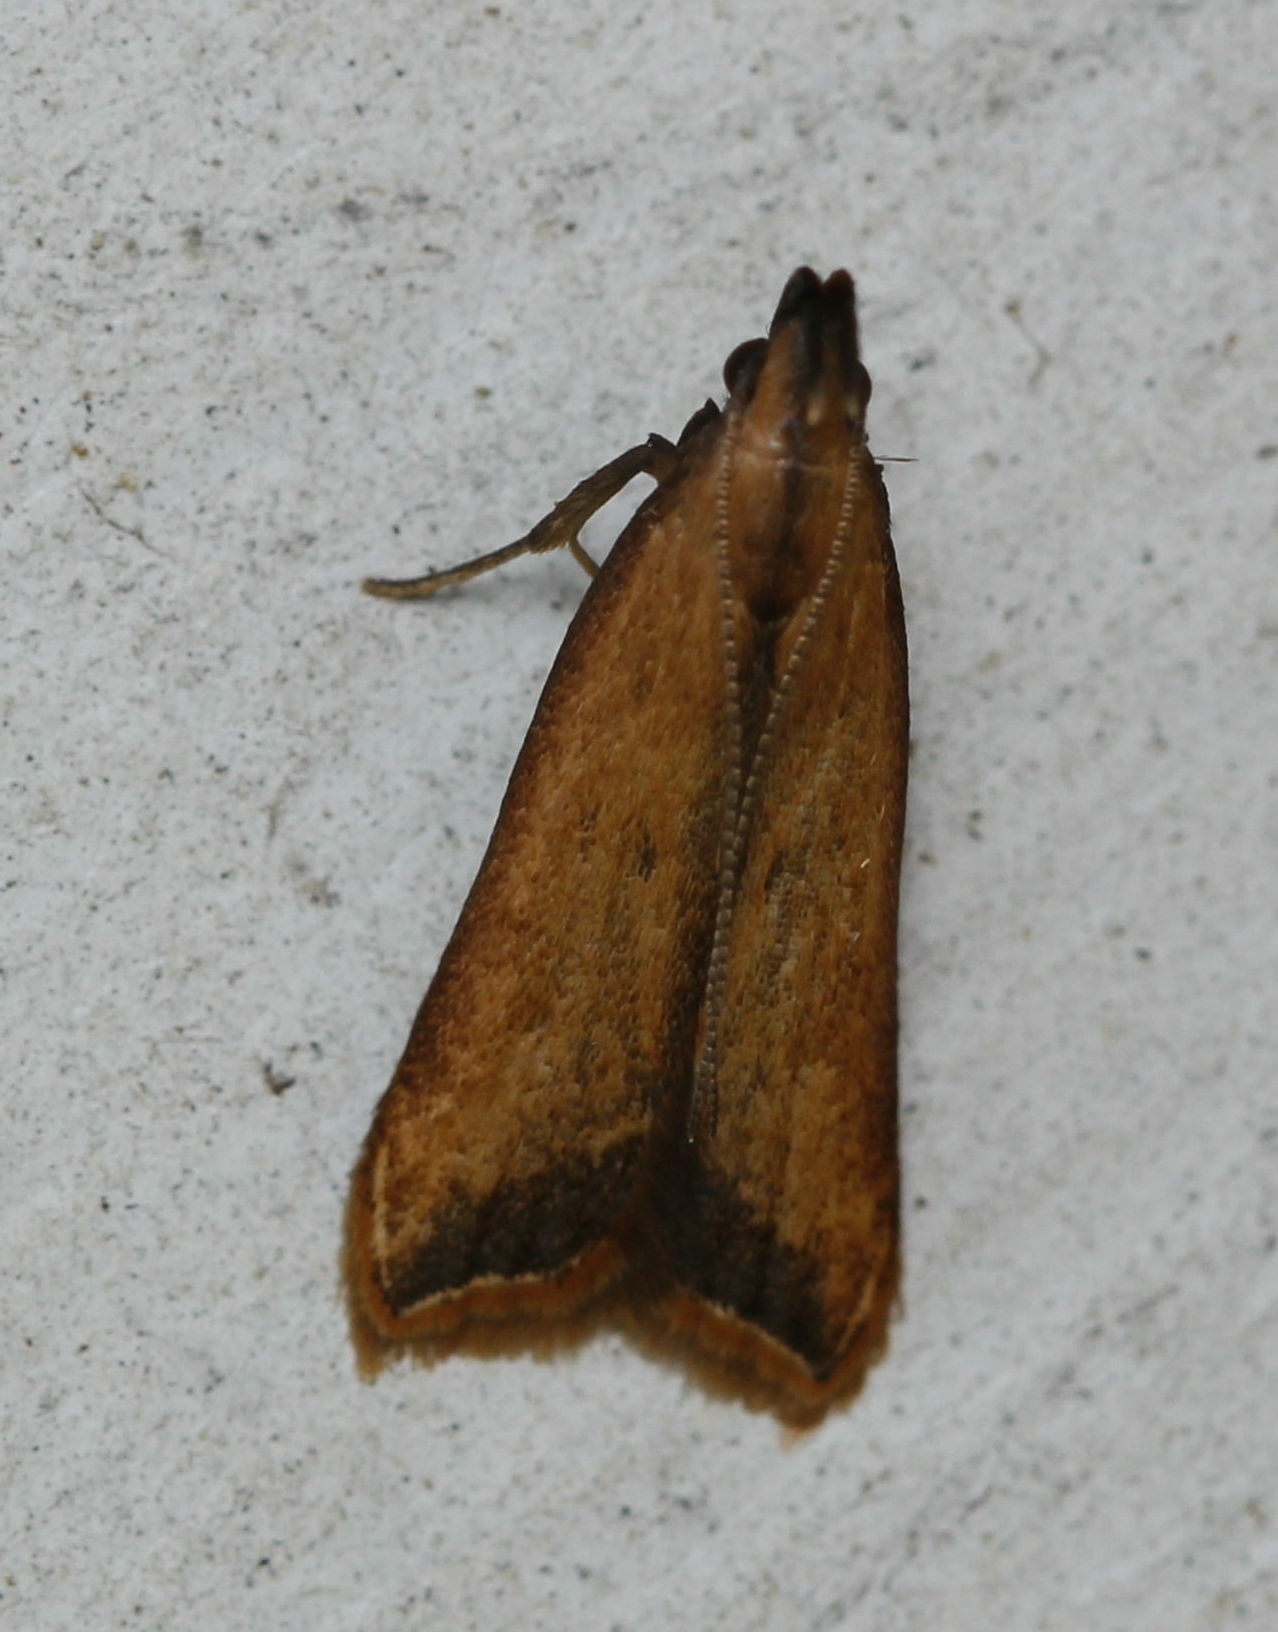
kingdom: Animalia
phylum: Arthropoda
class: Insecta
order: Lepidoptera
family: Gelechiidae
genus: Dichomeris
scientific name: Dichomeris heriguronis
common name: Black-edged dichomeris moth
